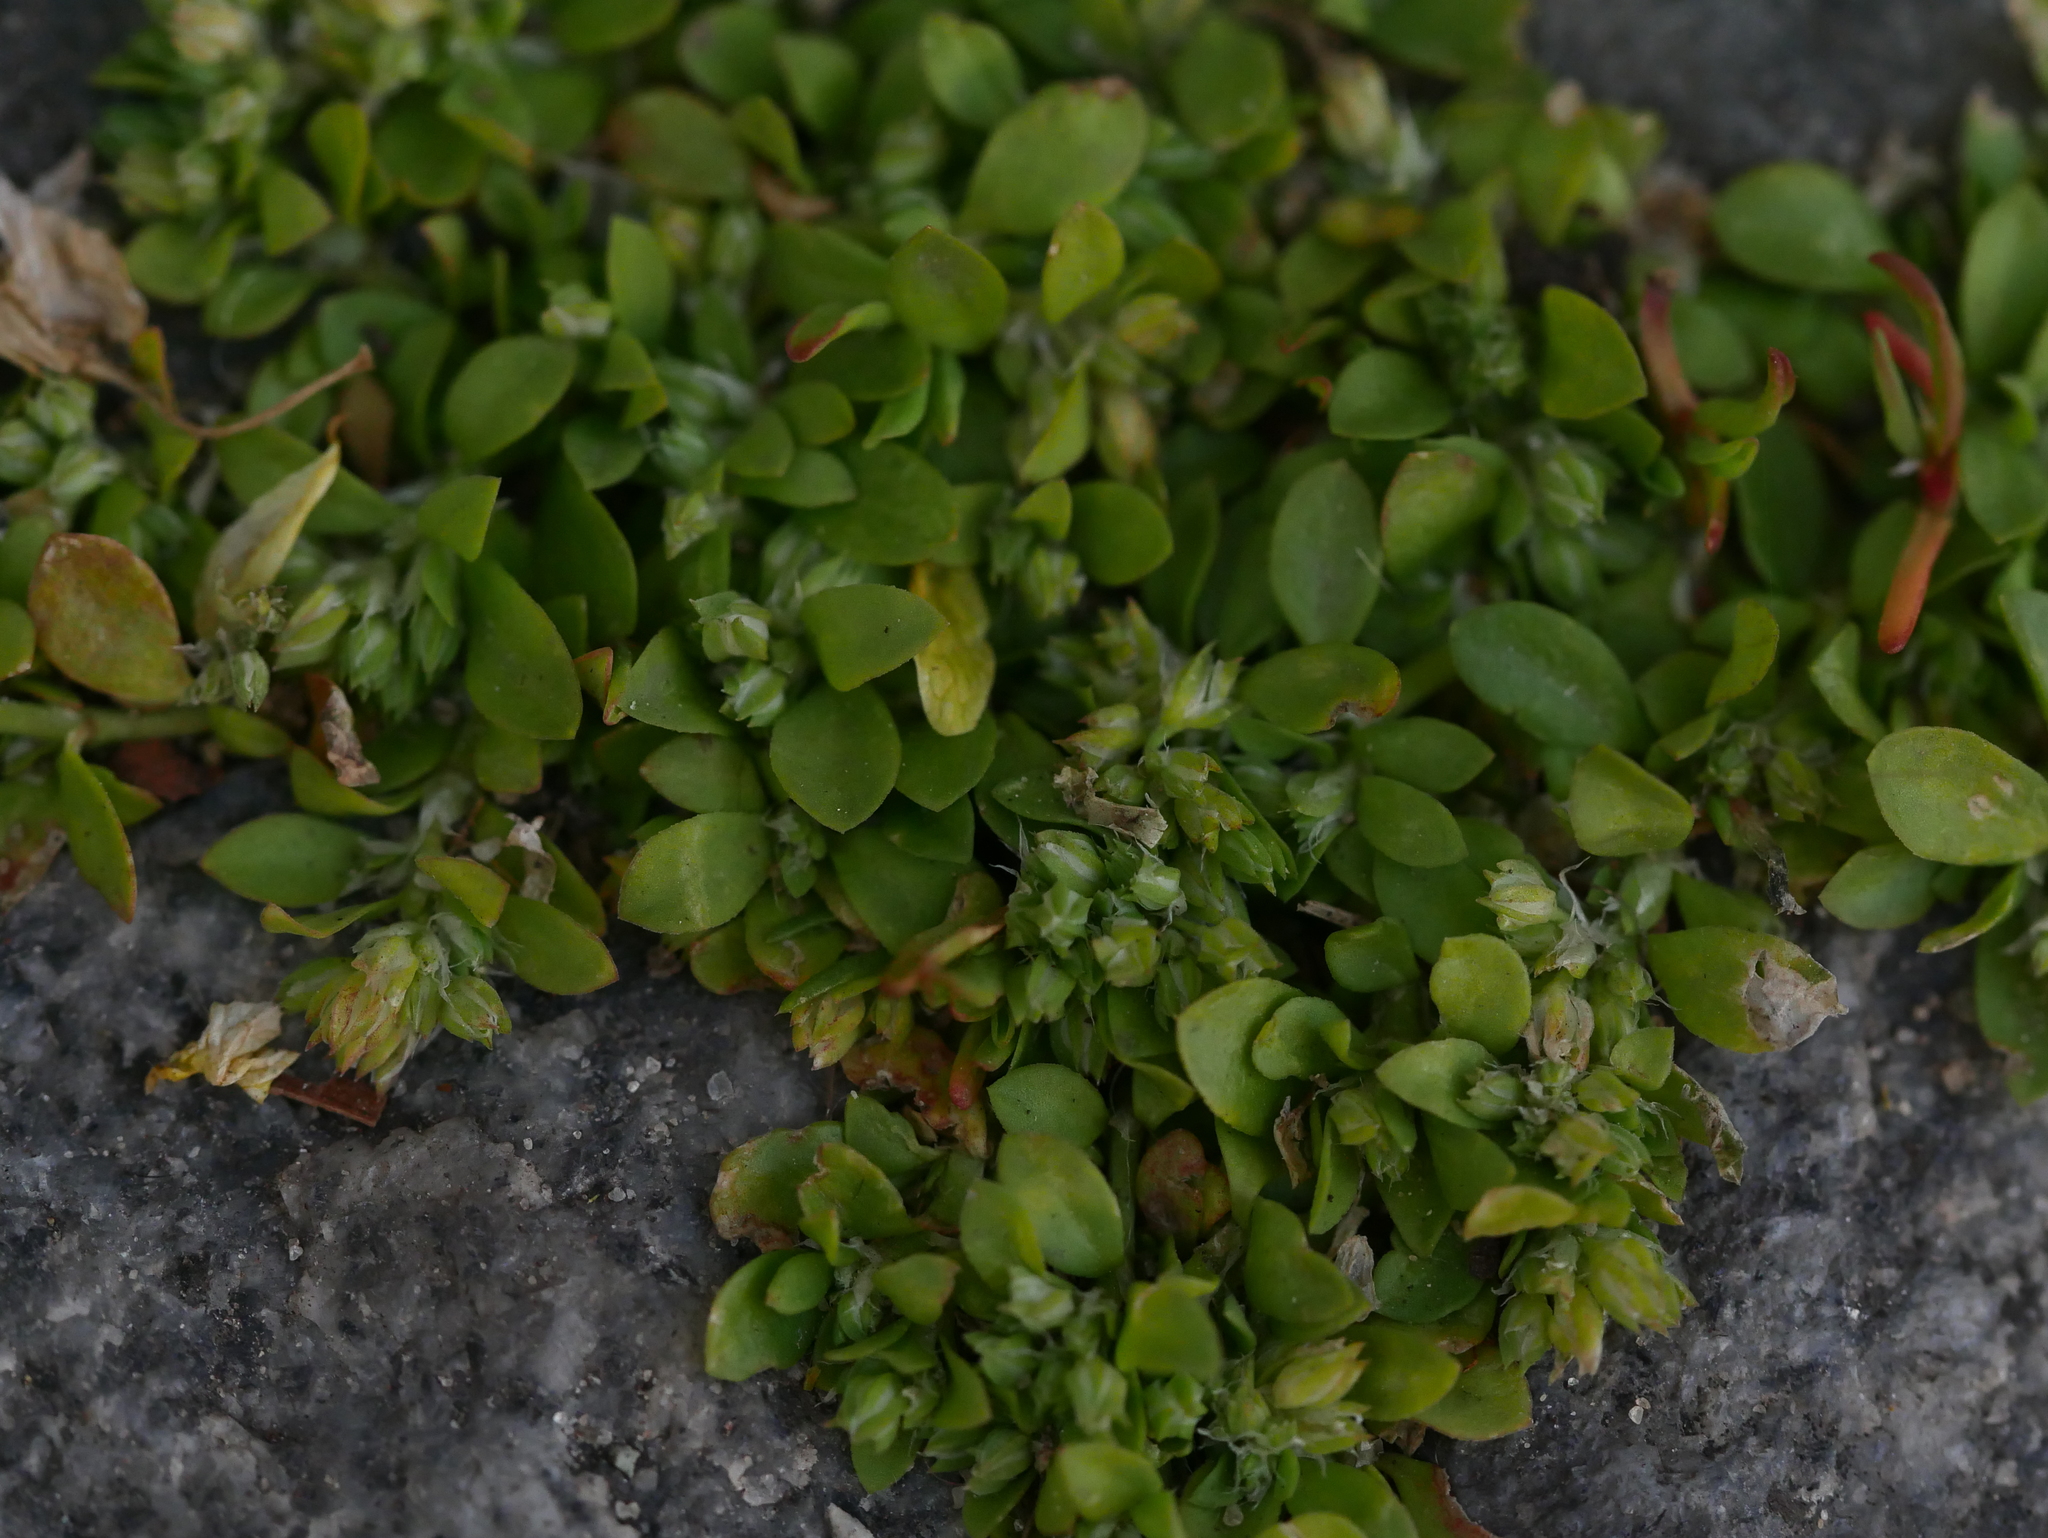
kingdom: Plantae
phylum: Tracheophyta
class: Magnoliopsida
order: Caryophyllales
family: Caryophyllaceae
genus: Polycarpon
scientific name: Polycarpon tetraphyllum
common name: Four-leaved all-seed
